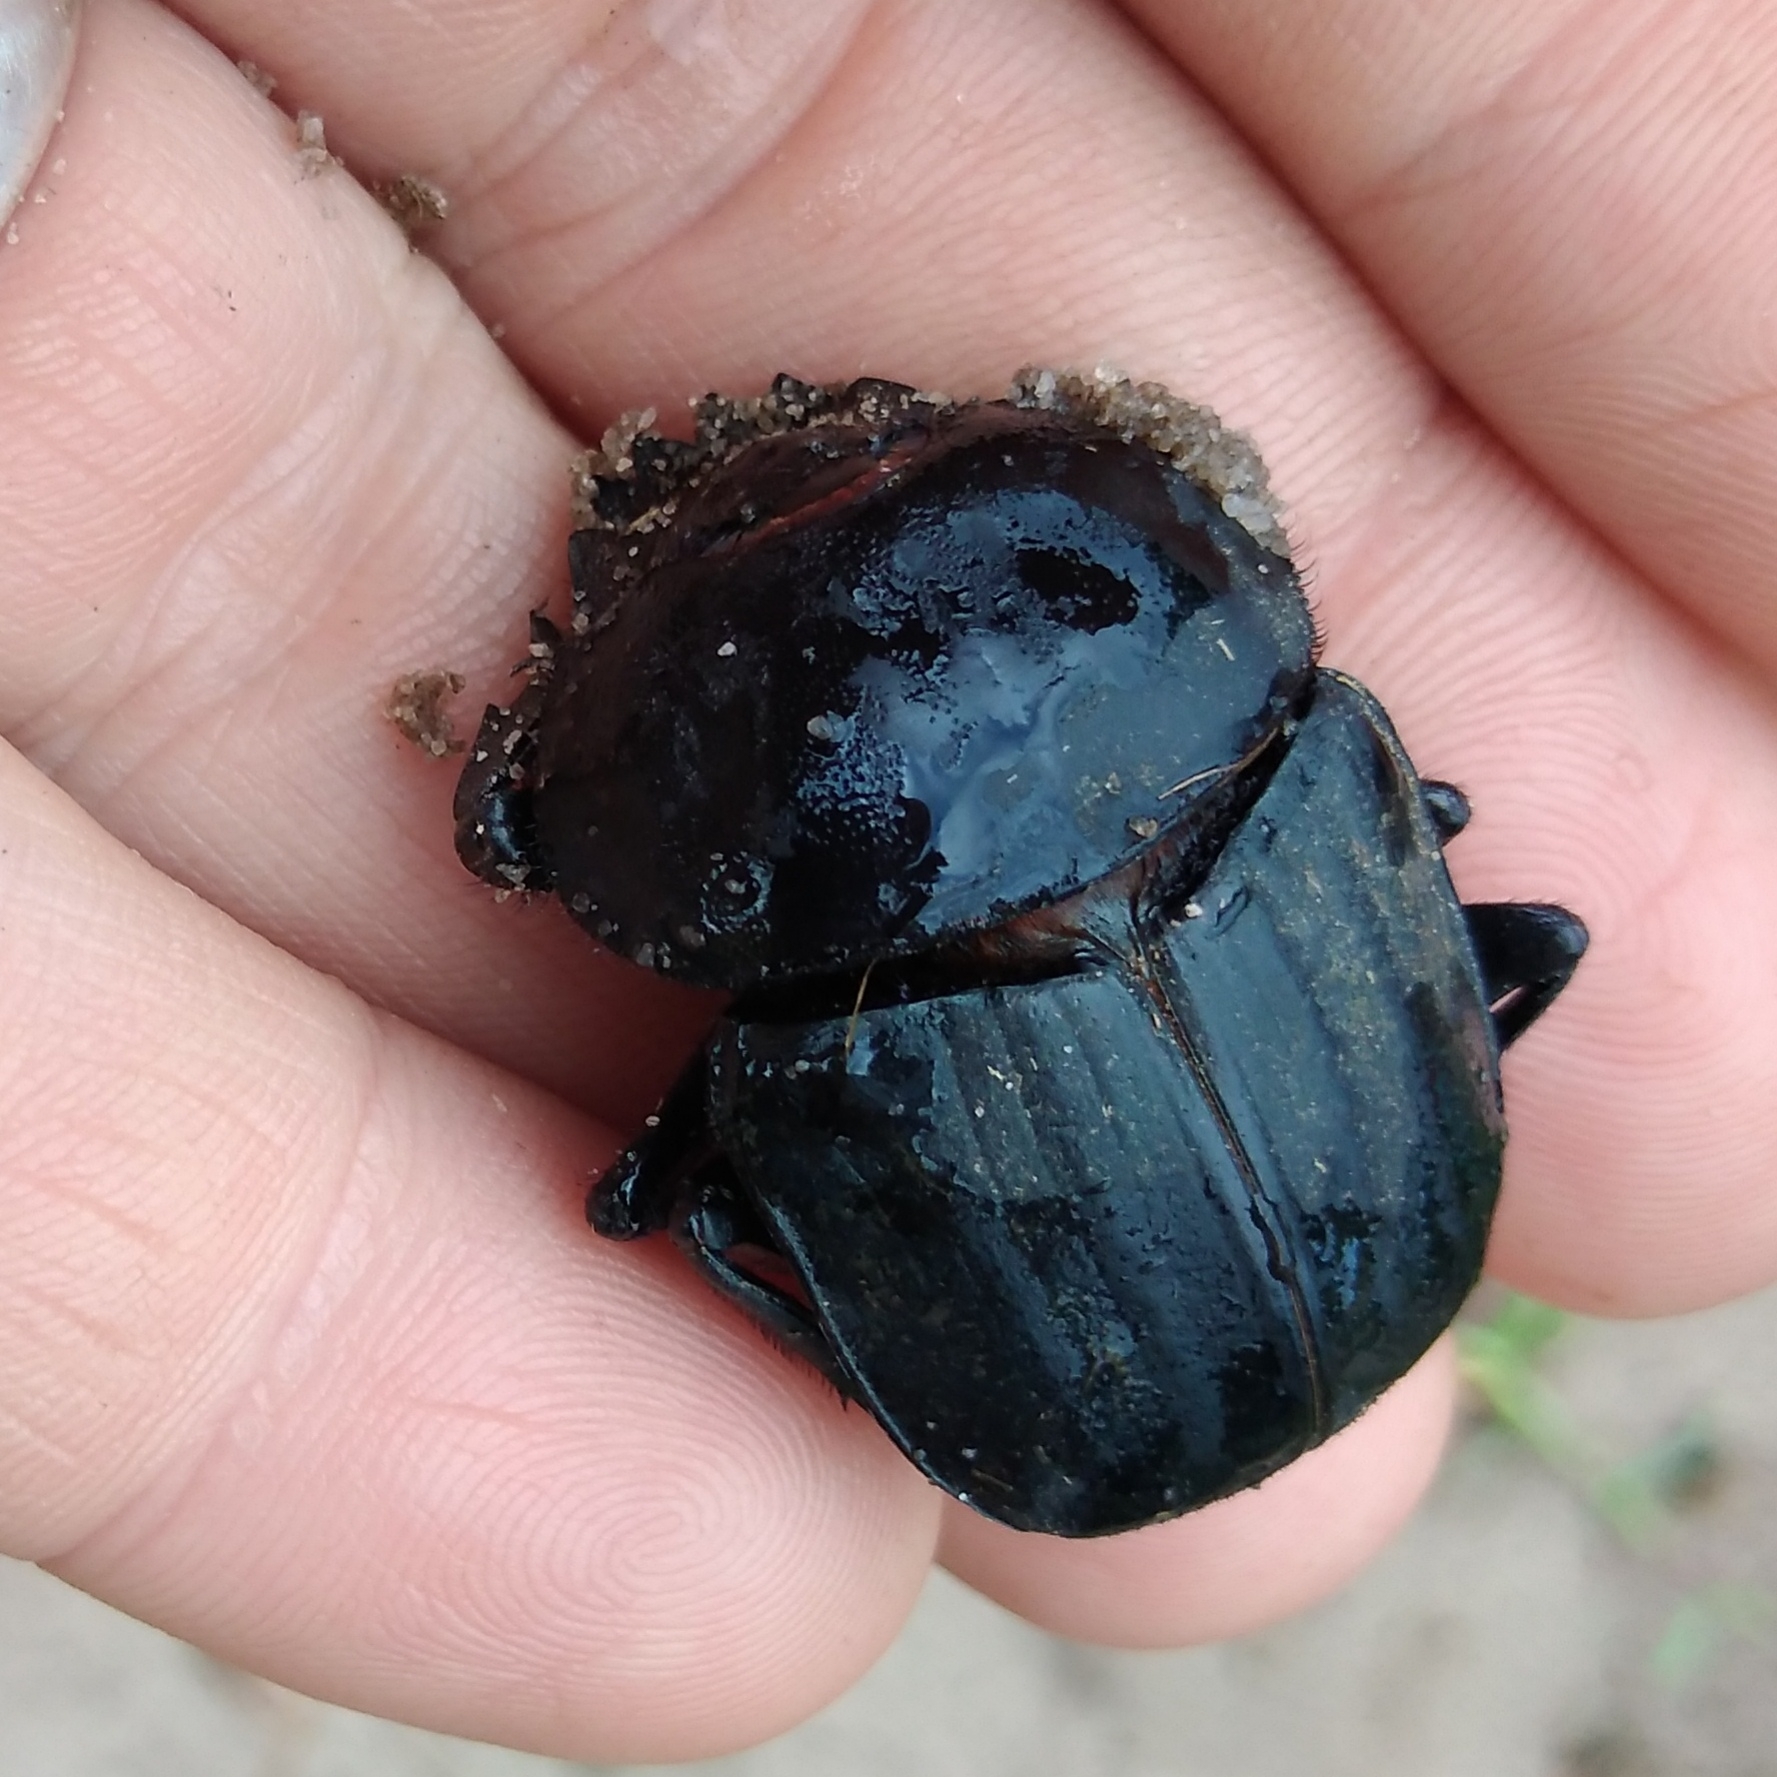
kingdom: Animalia
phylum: Arthropoda
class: Insecta
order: Coleoptera
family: Scarabaeidae
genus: Kheper
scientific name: Kheper lamarcki
